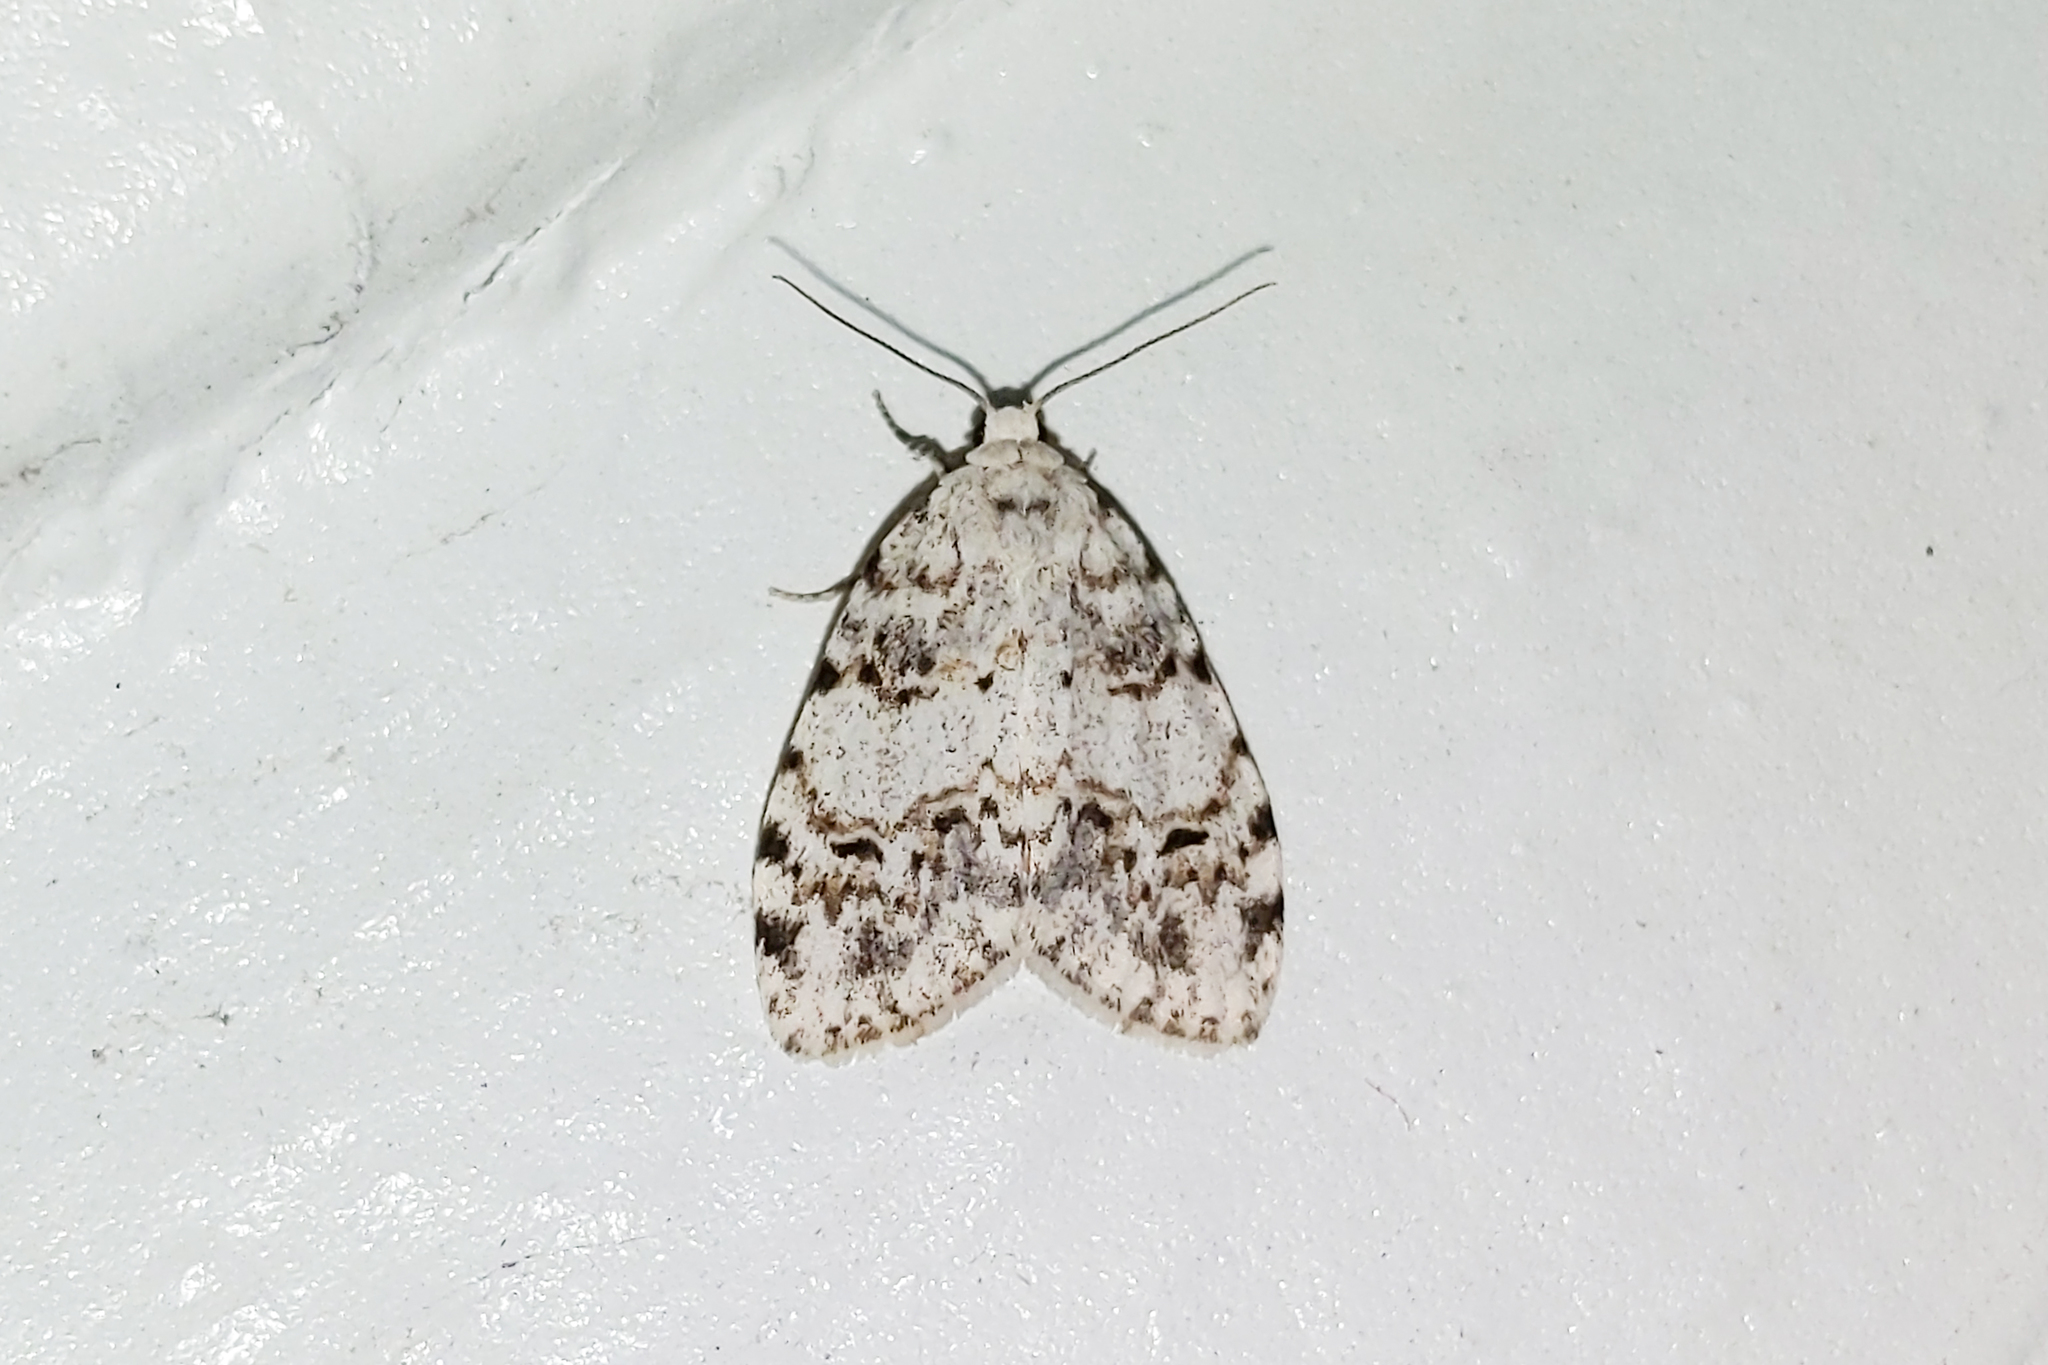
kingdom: Animalia
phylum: Arthropoda
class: Insecta
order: Lepidoptera
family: Erebidae
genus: Clemensia
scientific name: Clemensia albata
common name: Little white lichen moth
